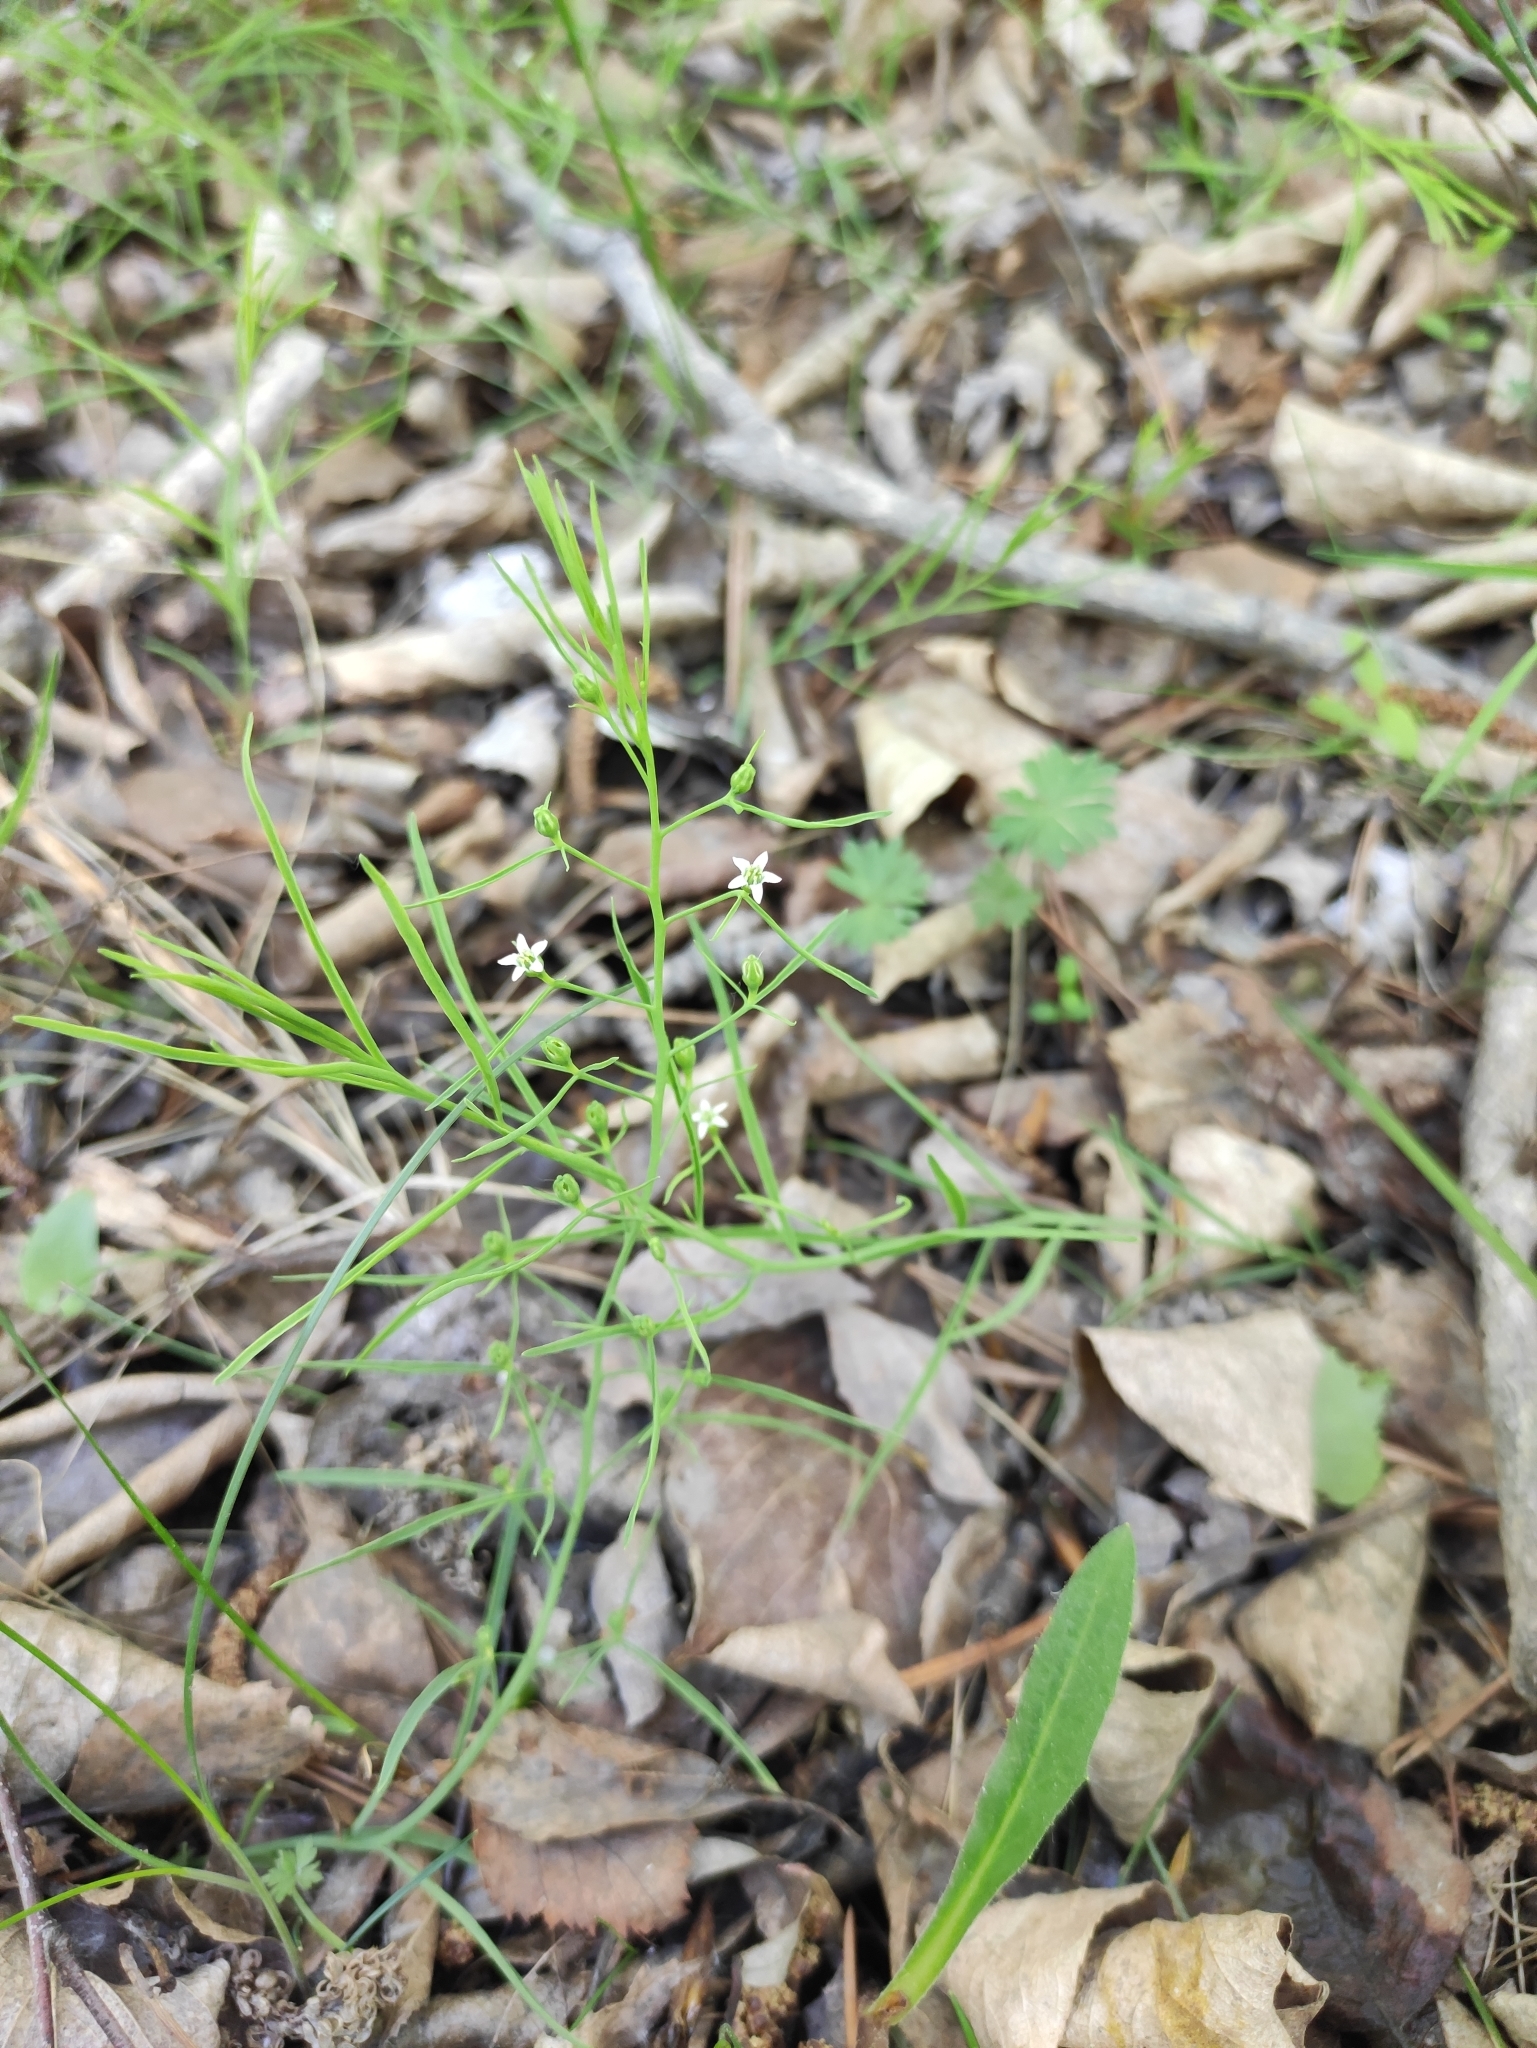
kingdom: Plantae
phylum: Tracheophyta
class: Magnoliopsida
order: Santalales
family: Thesiaceae
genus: Thesium
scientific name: Thesium repens
